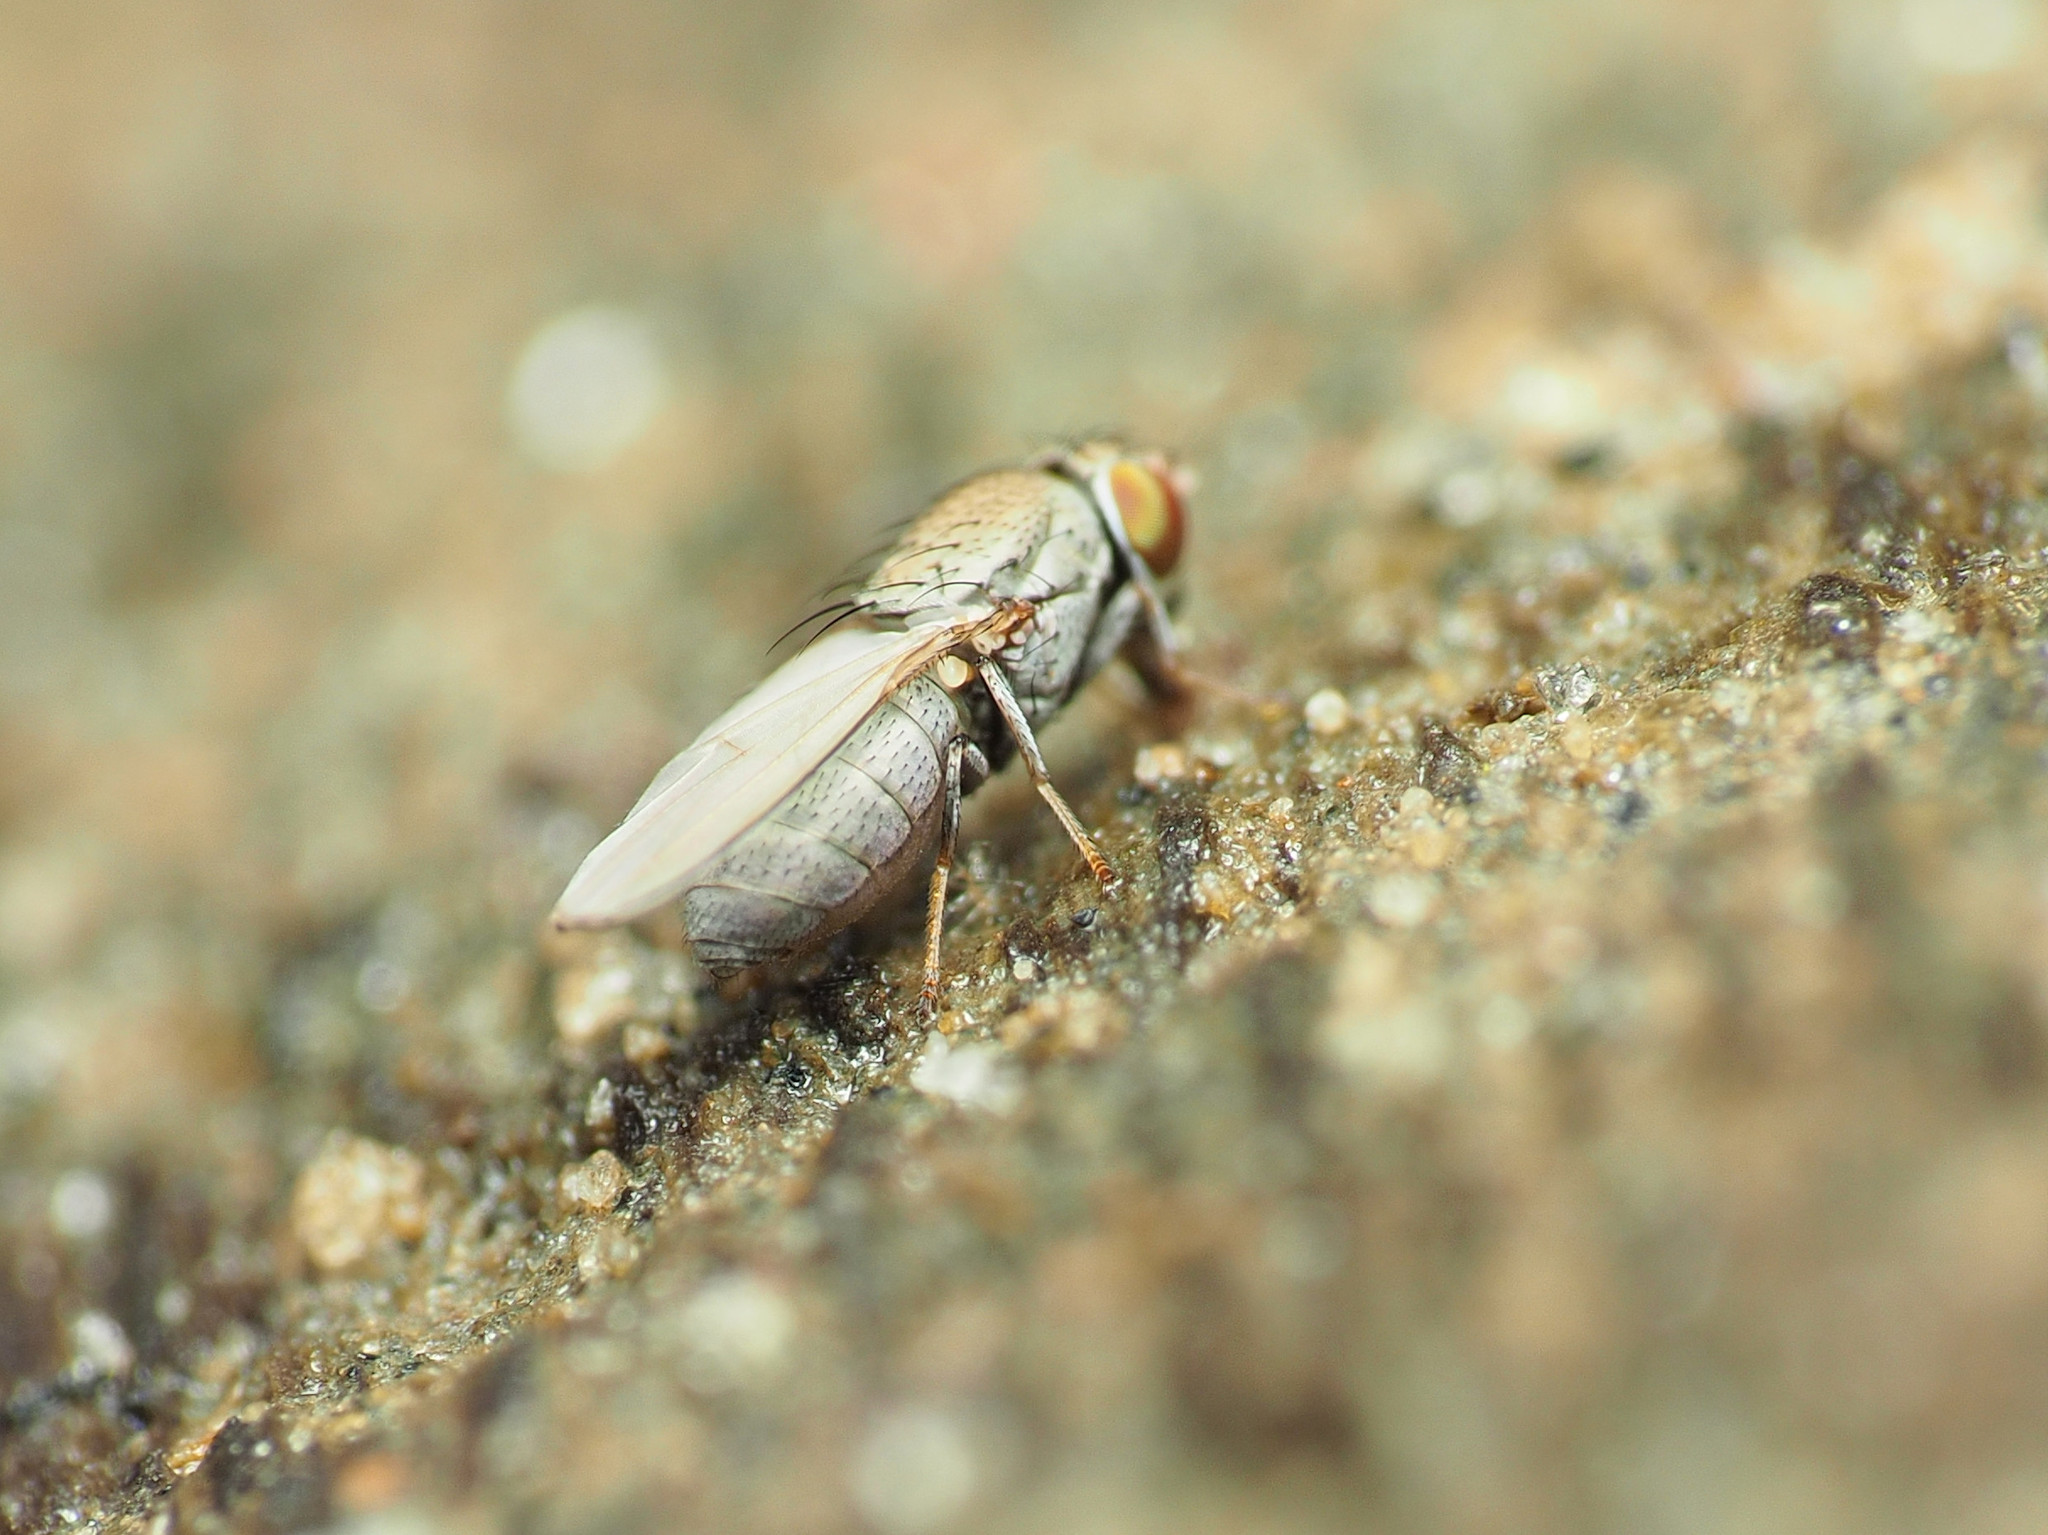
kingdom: Animalia
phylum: Arthropoda
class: Insecta
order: Diptera
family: Ephydridae
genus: Diclasiopa
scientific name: Diclasiopa lacteipennis
